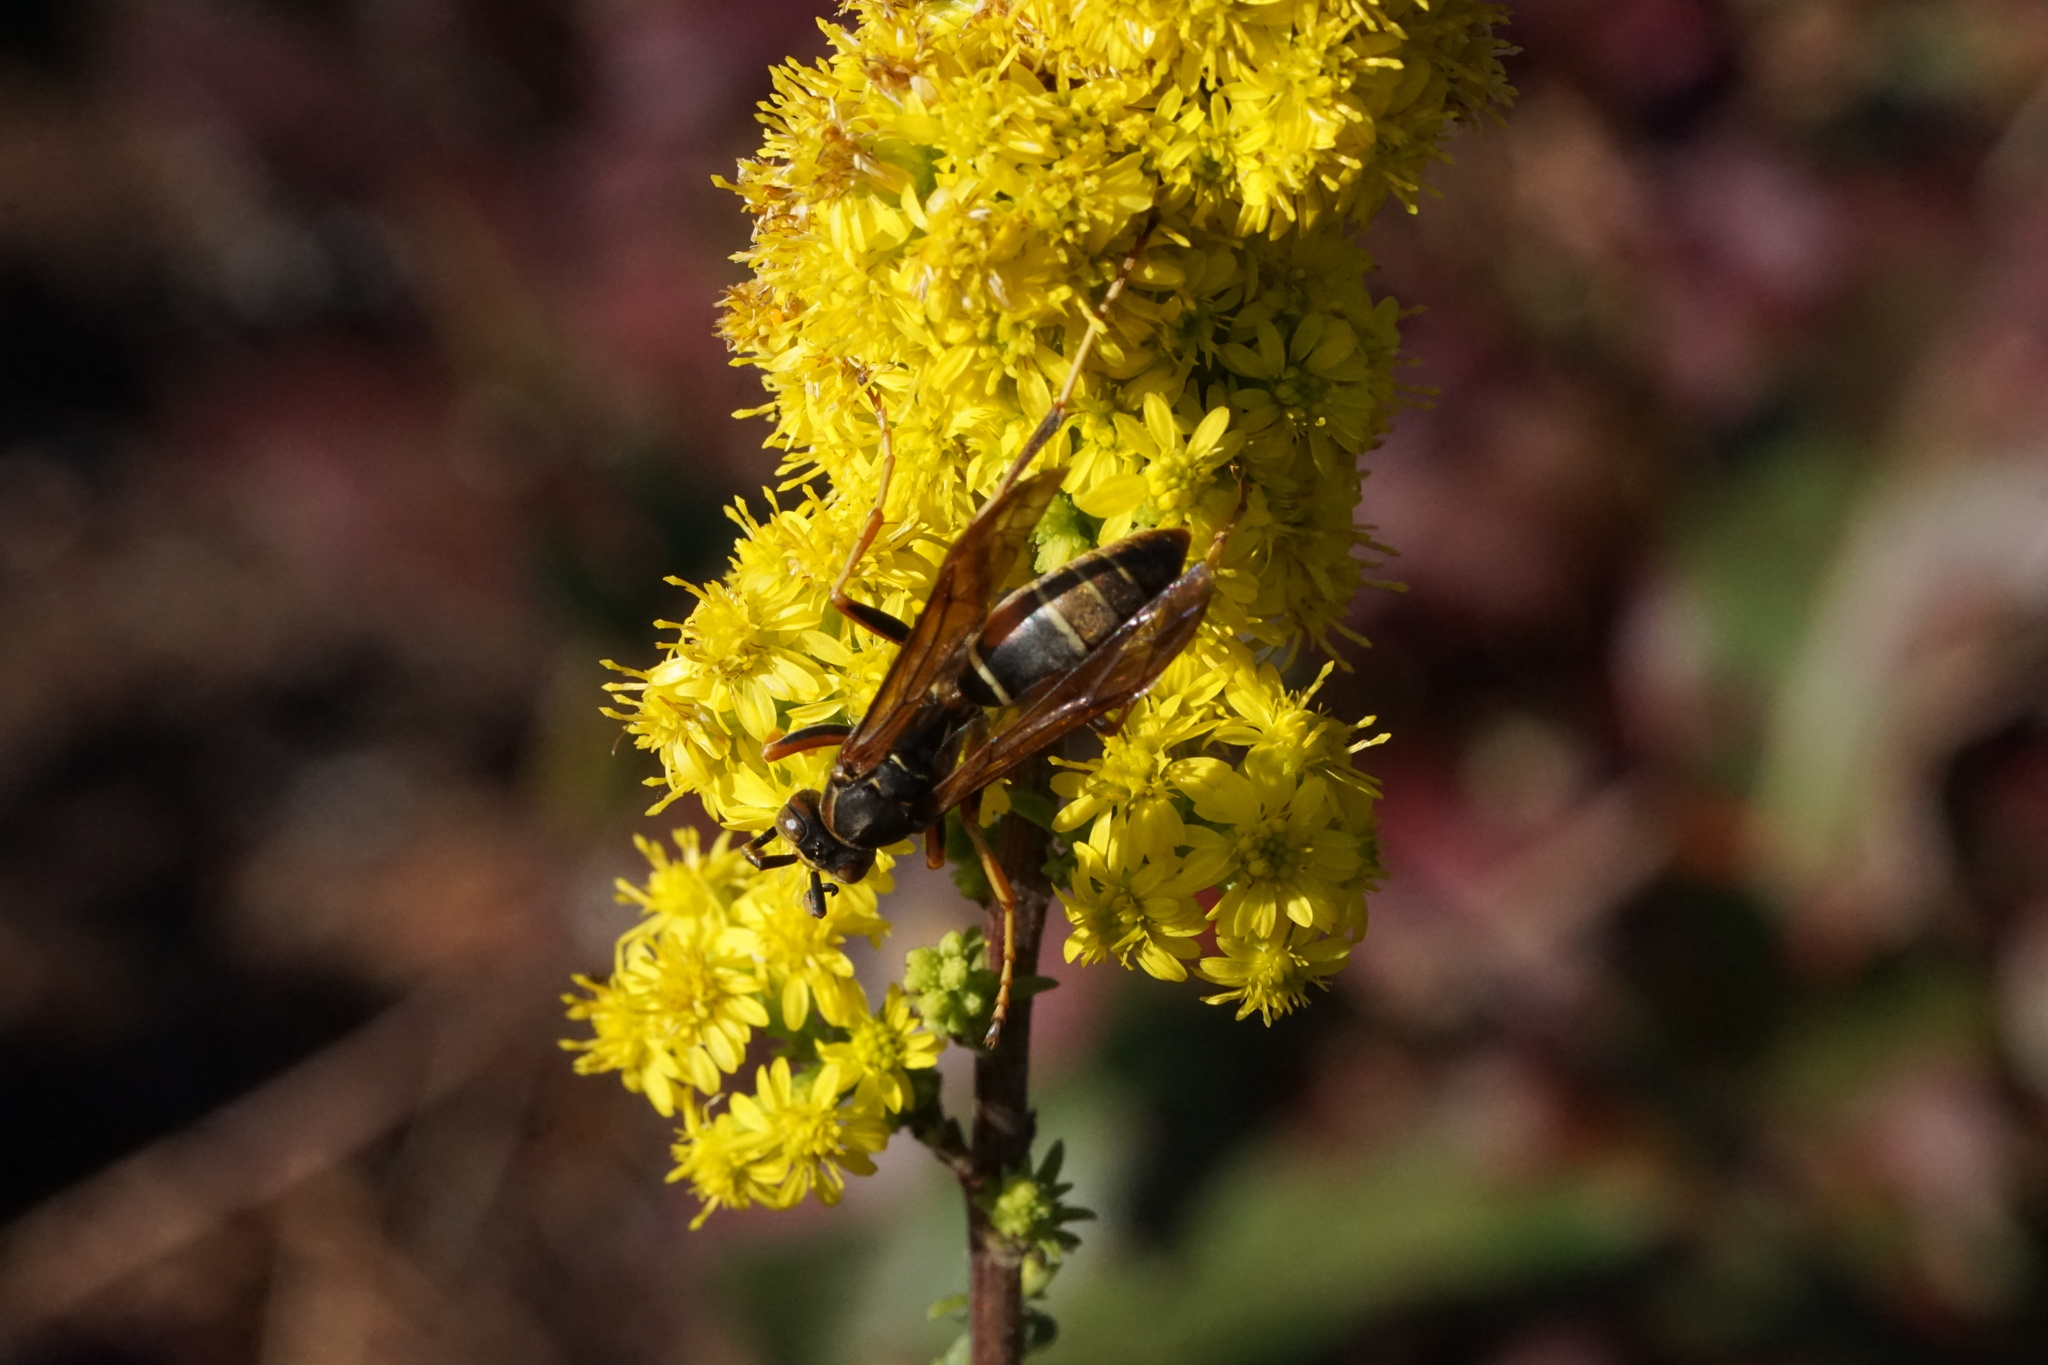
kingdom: Animalia
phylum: Arthropoda
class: Insecta
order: Hymenoptera
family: Eumenidae
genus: Polistes
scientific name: Polistes fuscatus
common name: Dark paper wasp
